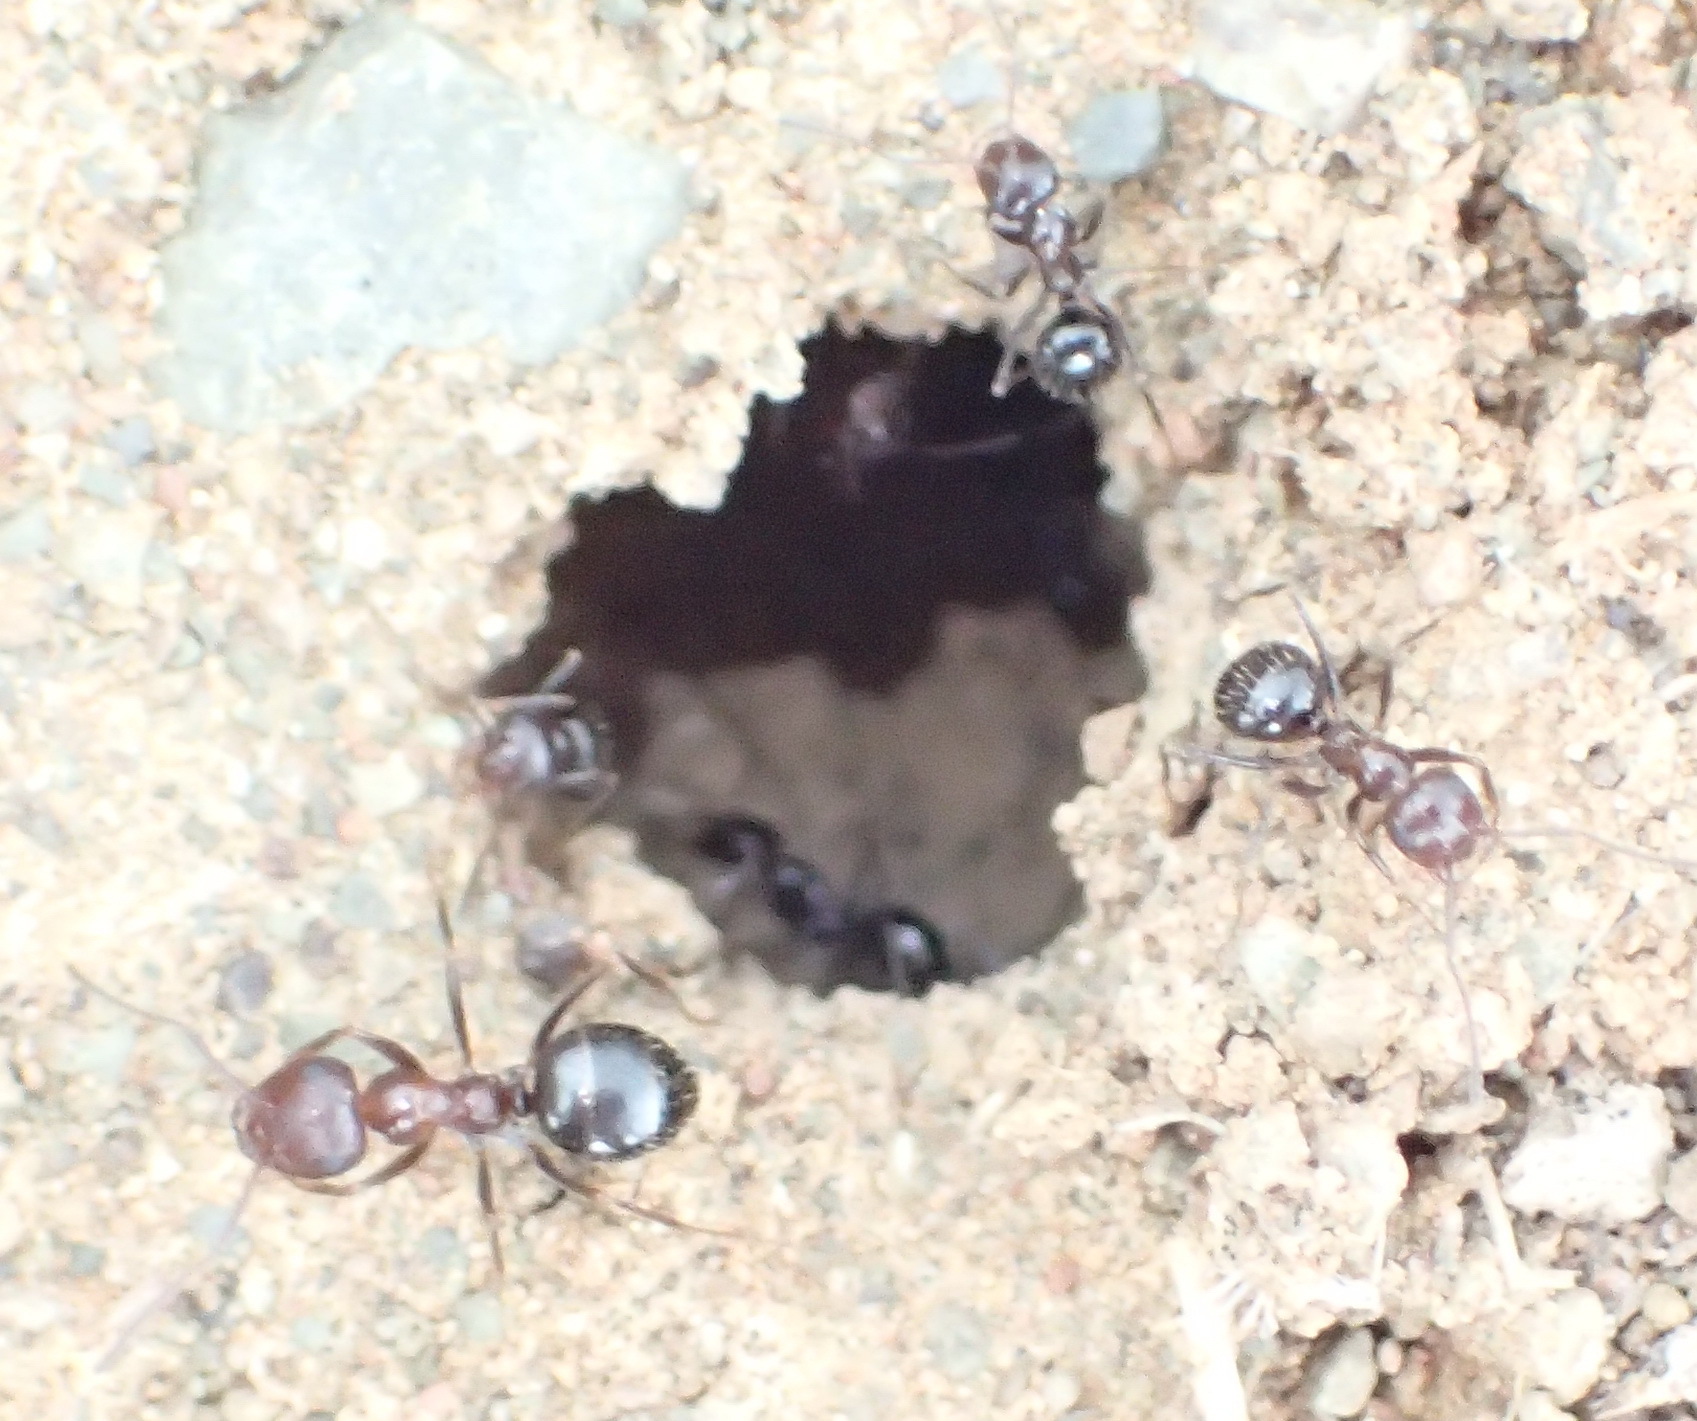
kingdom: Animalia
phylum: Arthropoda
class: Insecta
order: Hymenoptera
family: Formicidae
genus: Anoplolepis
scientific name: Anoplolepis steingroeveri
